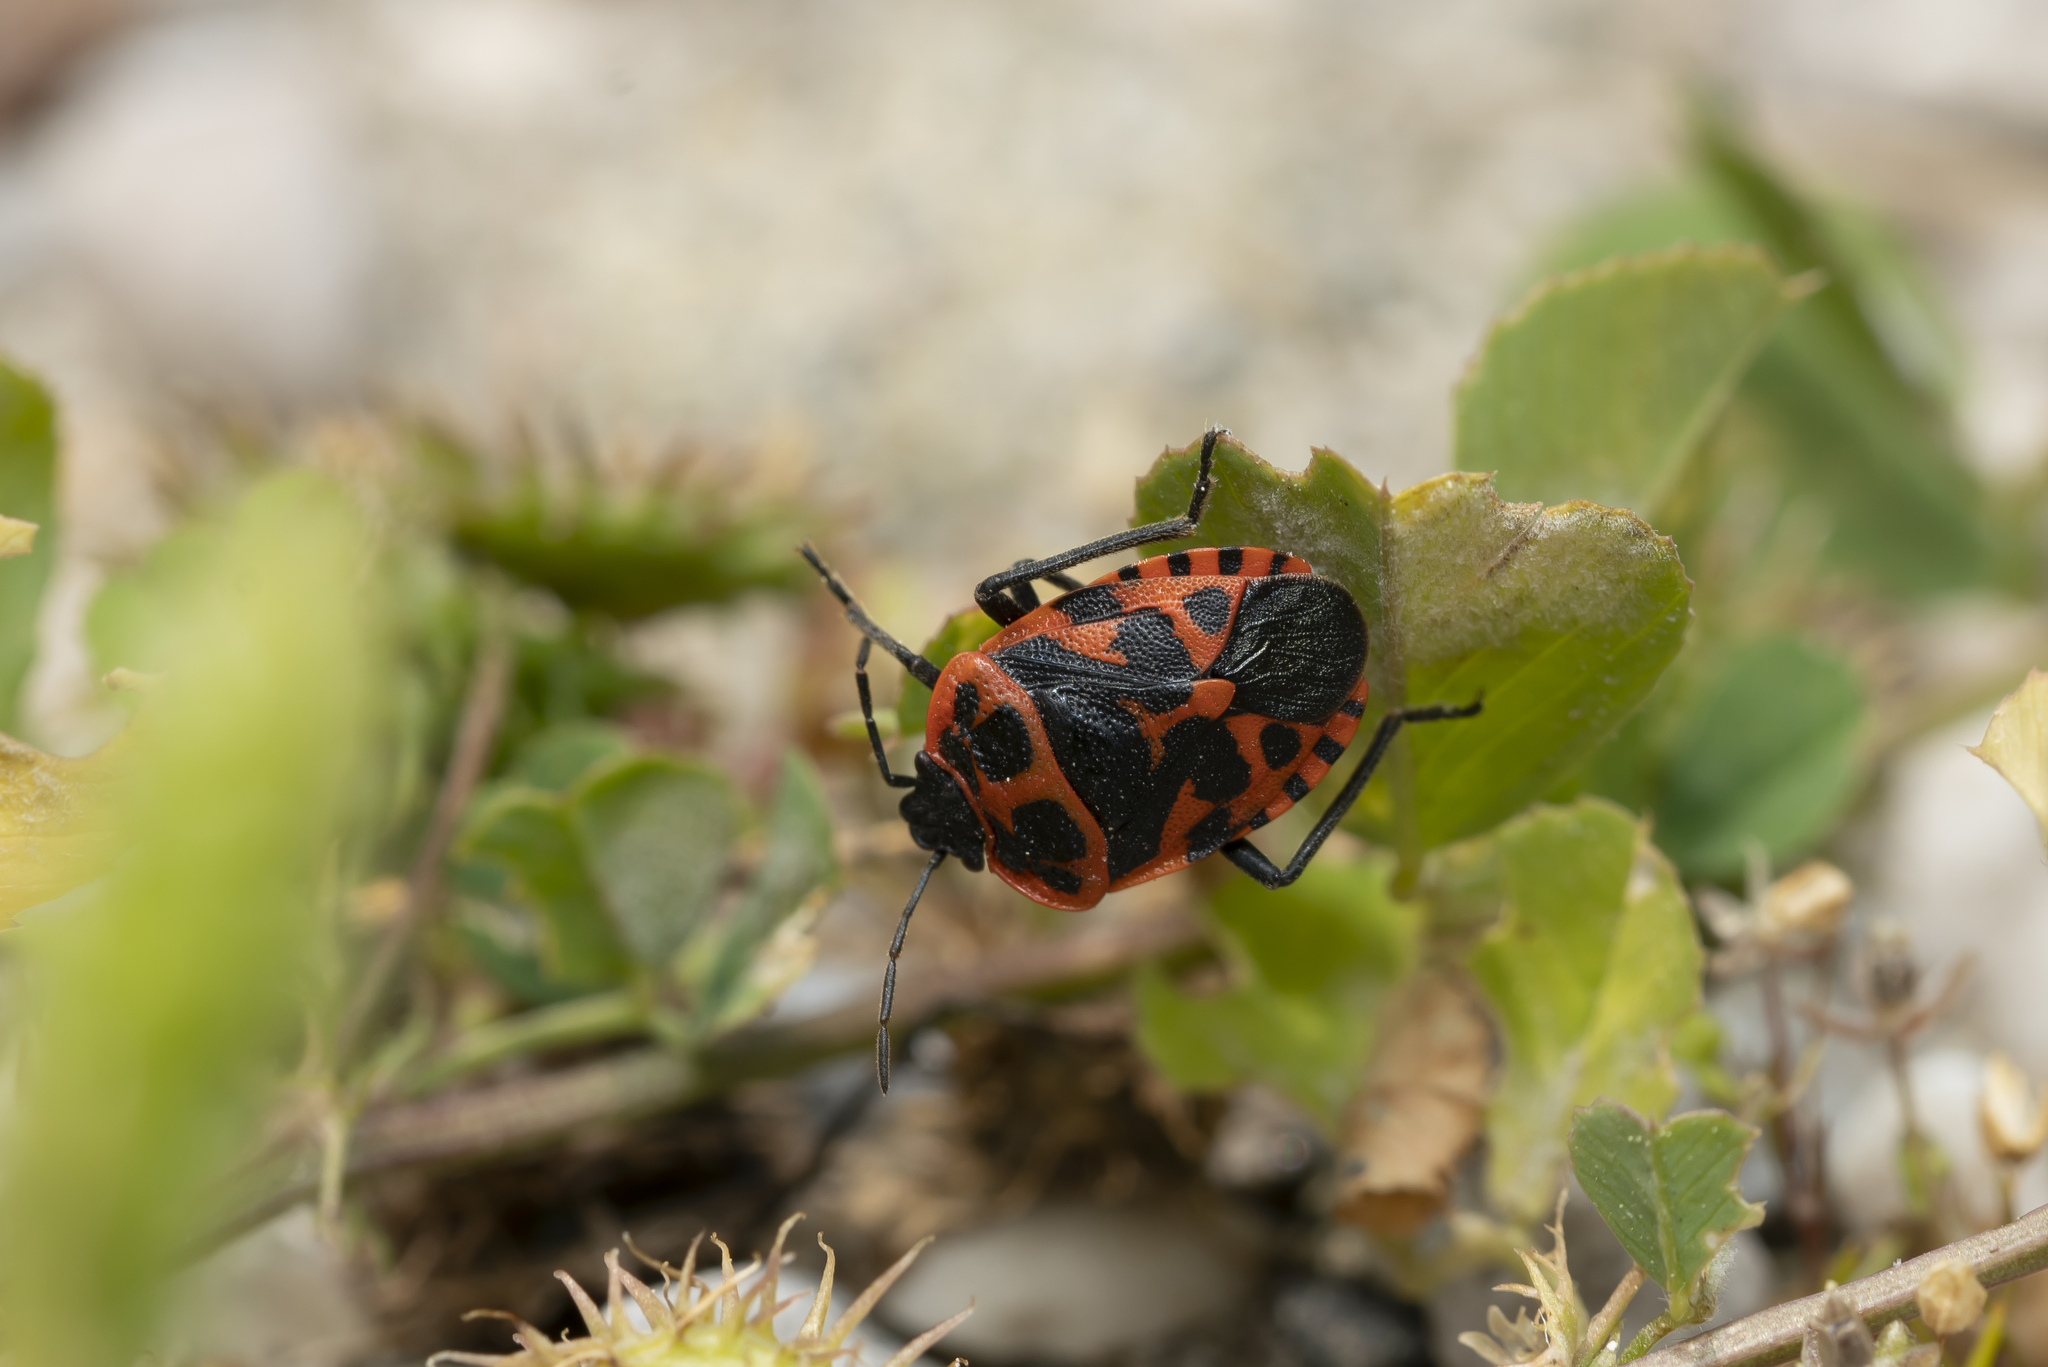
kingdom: Animalia
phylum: Arthropoda
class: Insecta
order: Hemiptera
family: Pentatomidae
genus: Eurydema
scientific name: Eurydema eckerleini
